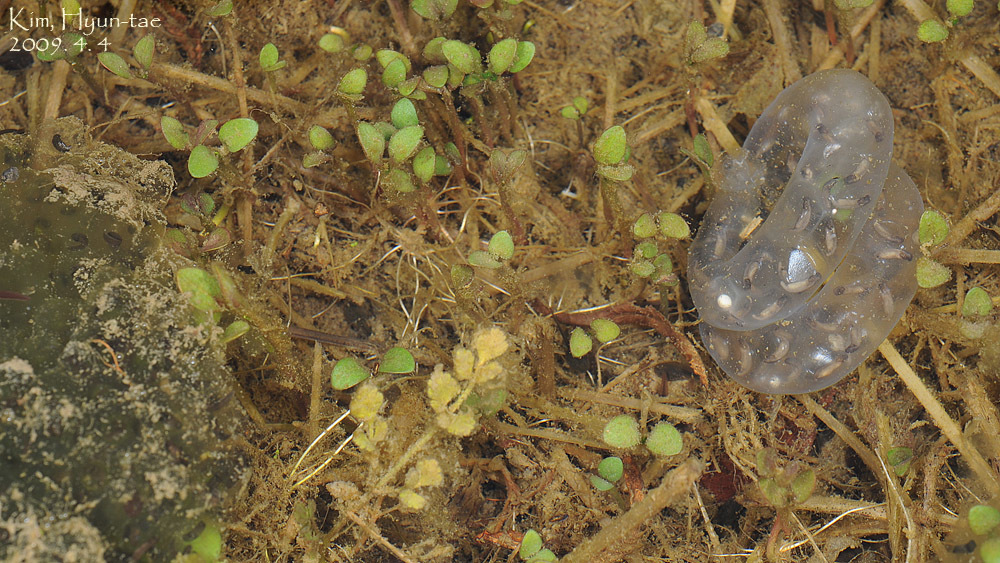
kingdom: Animalia
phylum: Chordata
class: Amphibia
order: Caudata
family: Hynobiidae
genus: Hynobius
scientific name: Hynobius leechii
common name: Gensan salamander
